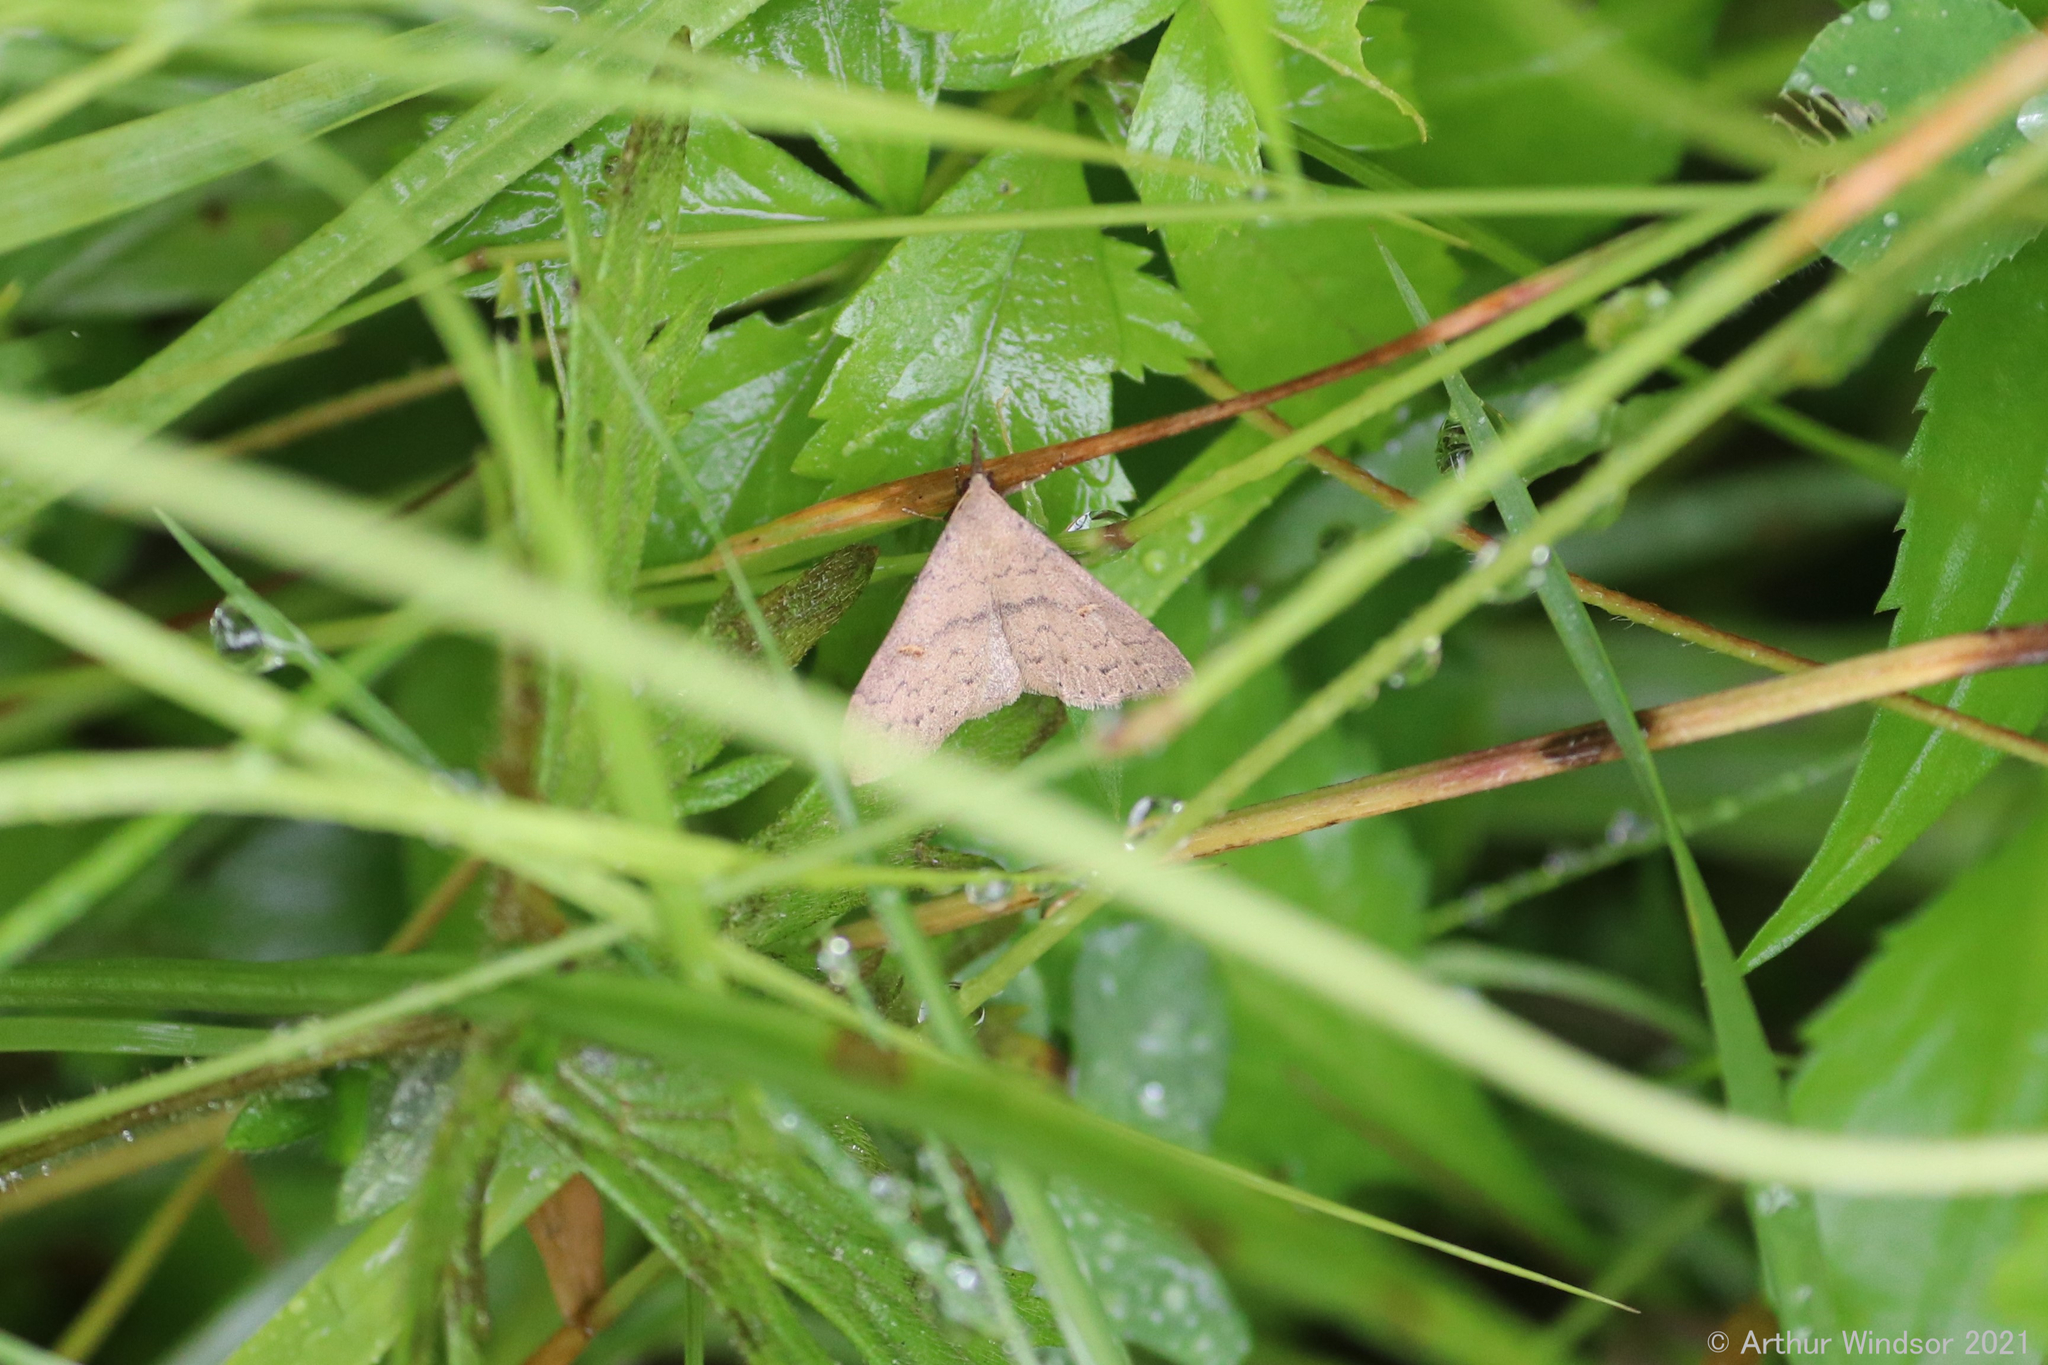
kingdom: Animalia
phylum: Arthropoda
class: Insecta
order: Lepidoptera
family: Erebidae
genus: Renia
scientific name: Renia adspergillus
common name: Speckled renia moth
